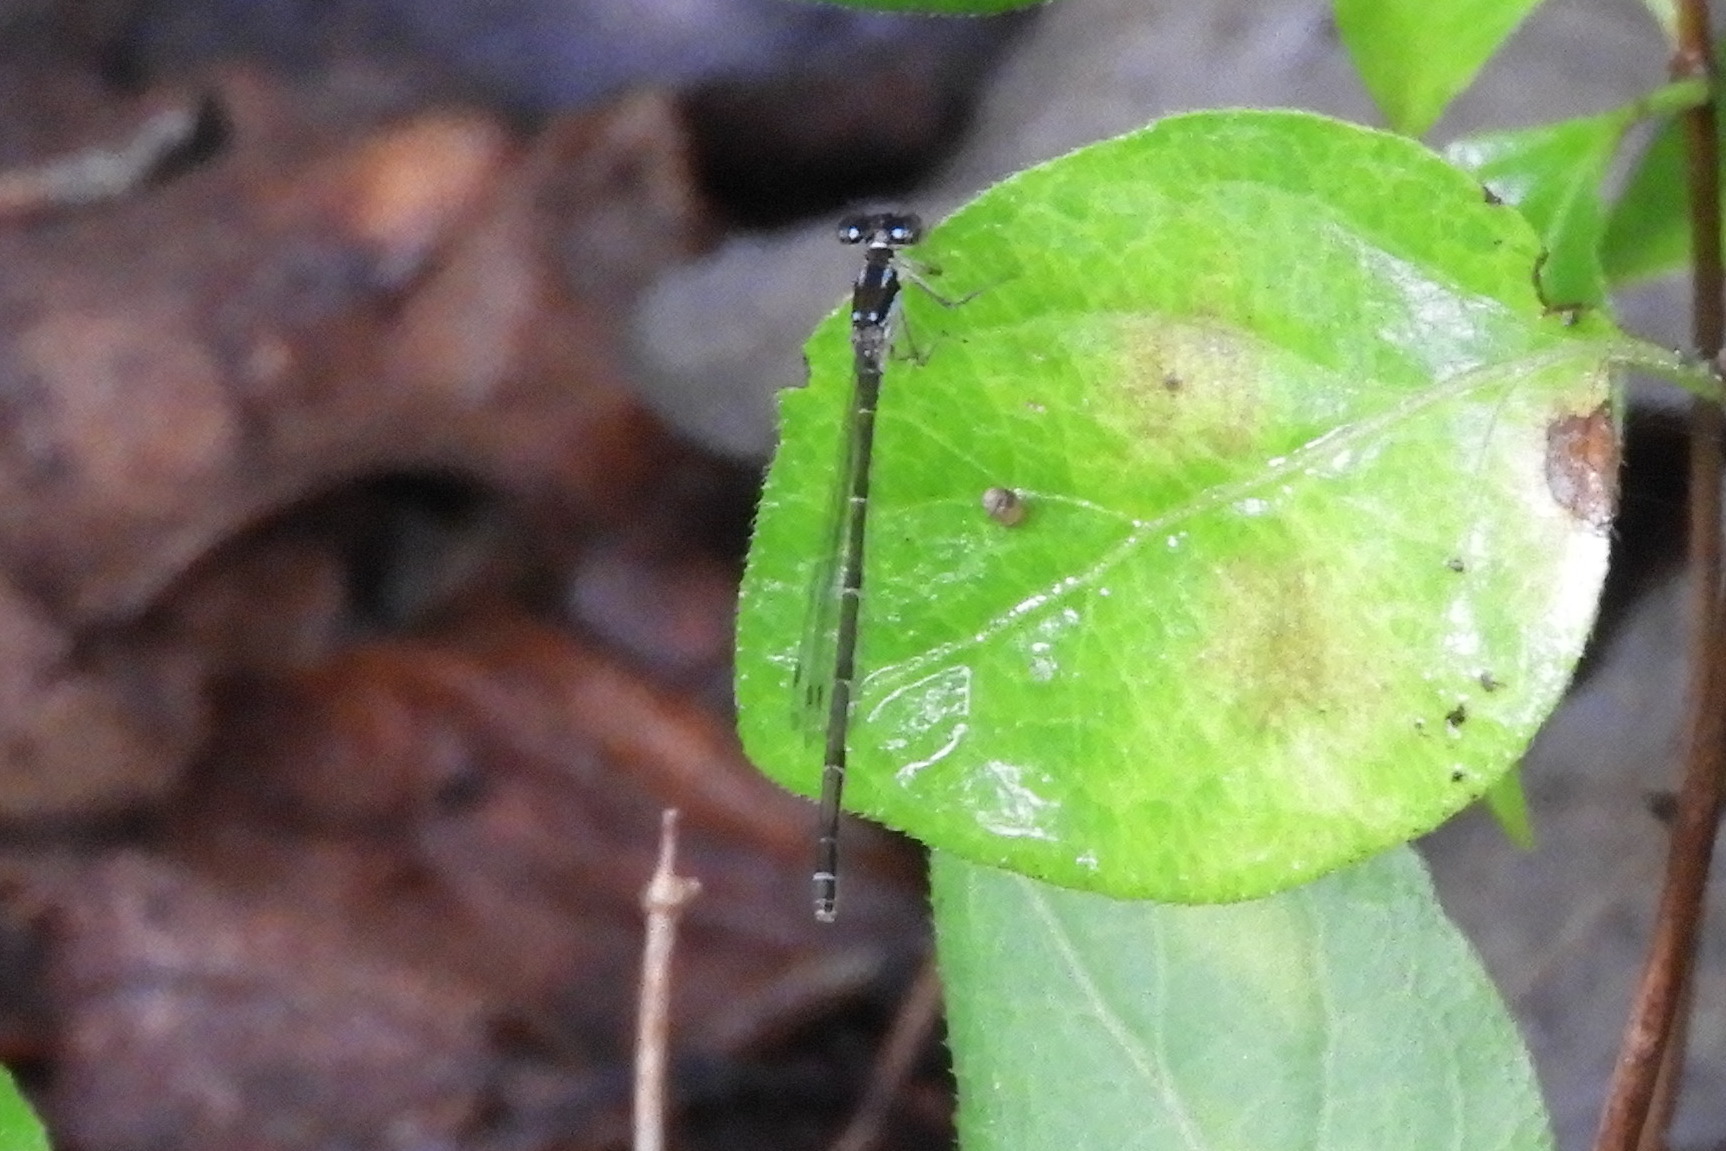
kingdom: Animalia
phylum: Arthropoda
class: Insecta
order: Odonata
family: Coenagrionidae
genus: Ischnura
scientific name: Ischnura posita
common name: Fragile forktail
